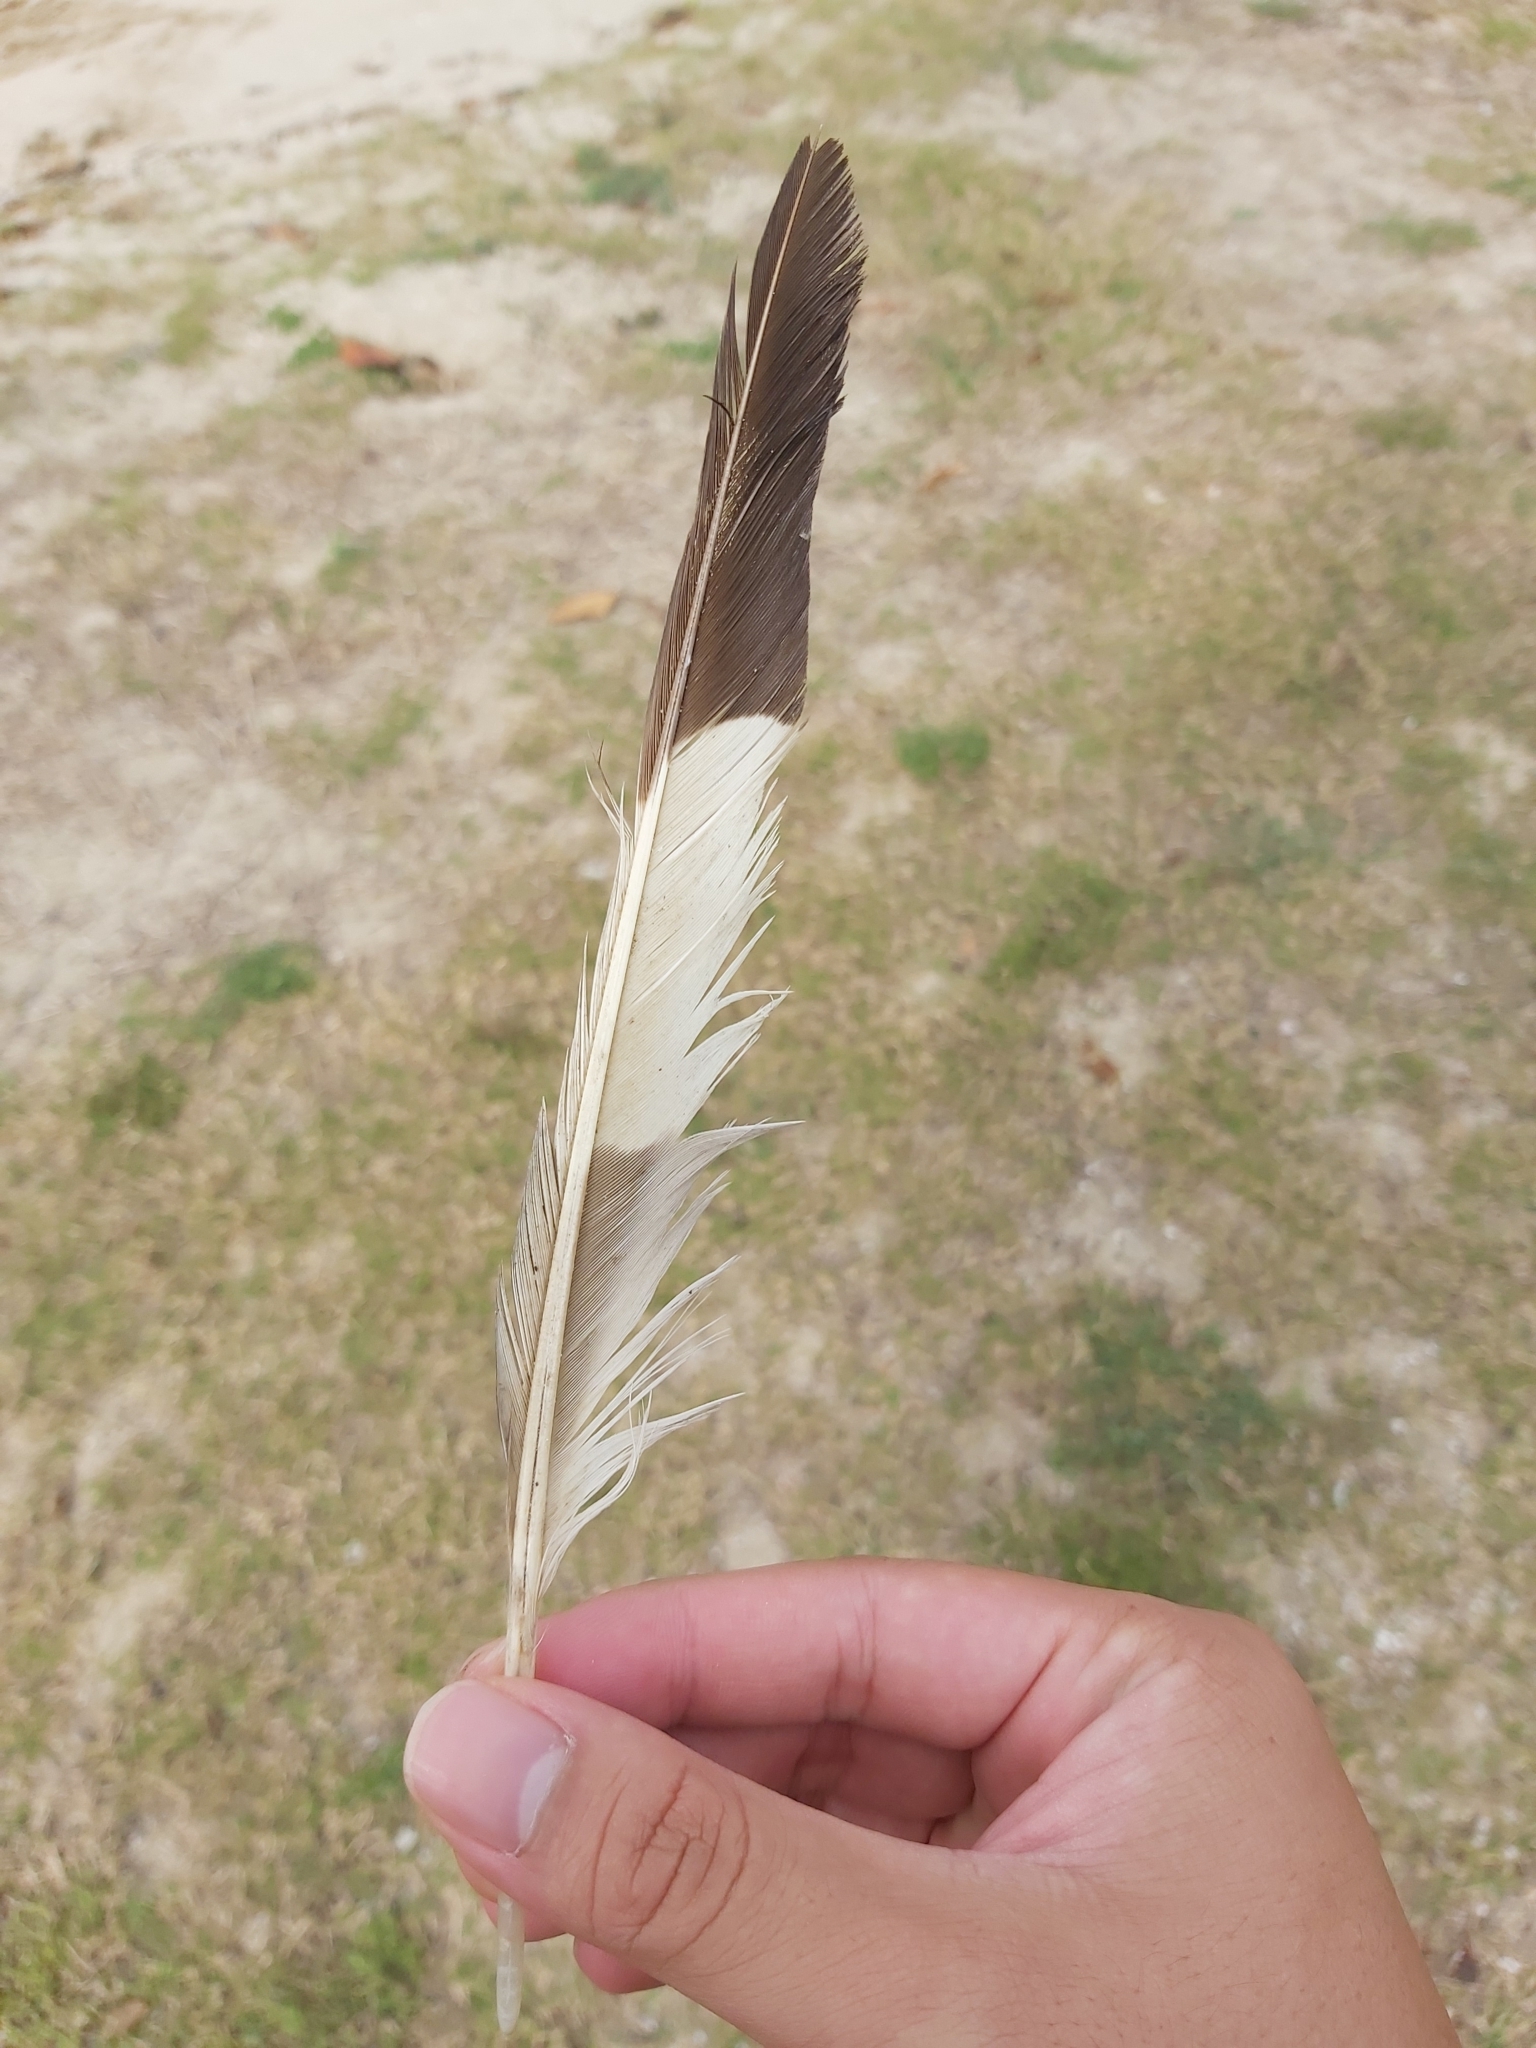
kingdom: Animalia
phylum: Chordata
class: Aves
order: Charadriiformes
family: Burhinidae
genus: Burhinus
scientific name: Burhinus grallarius
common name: Bush stone-curlew
